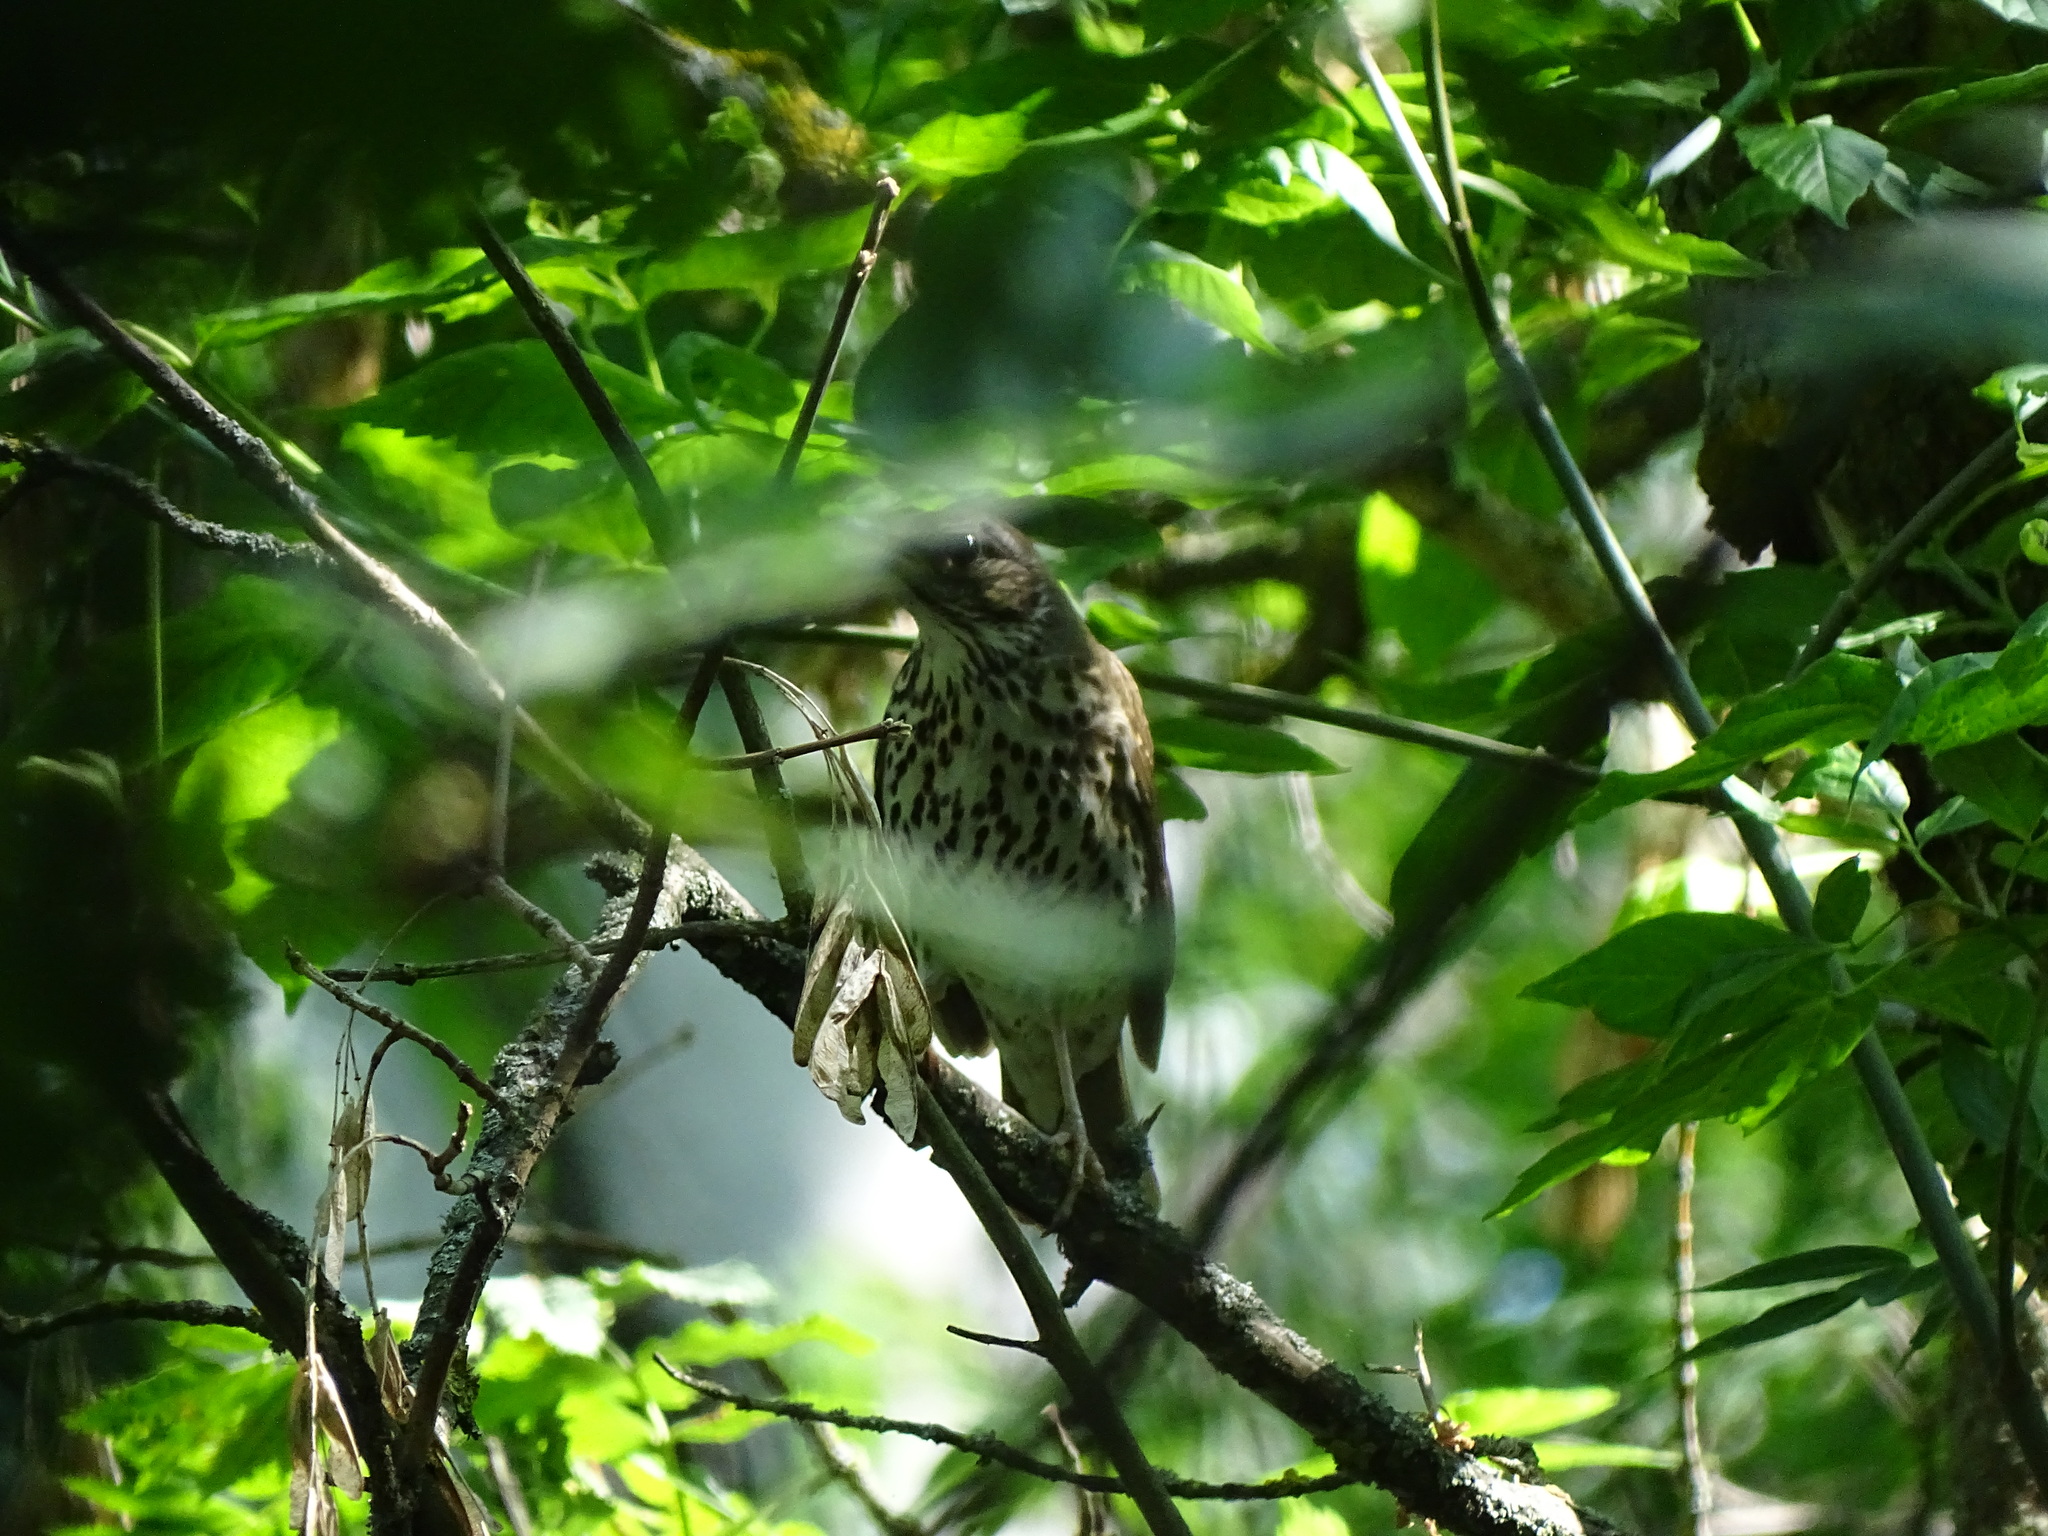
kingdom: Animalia
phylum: Chordata
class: Aves
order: Passeriformes
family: Turdidae
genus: Turdus
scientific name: Turdus philomelos
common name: Song thrush
